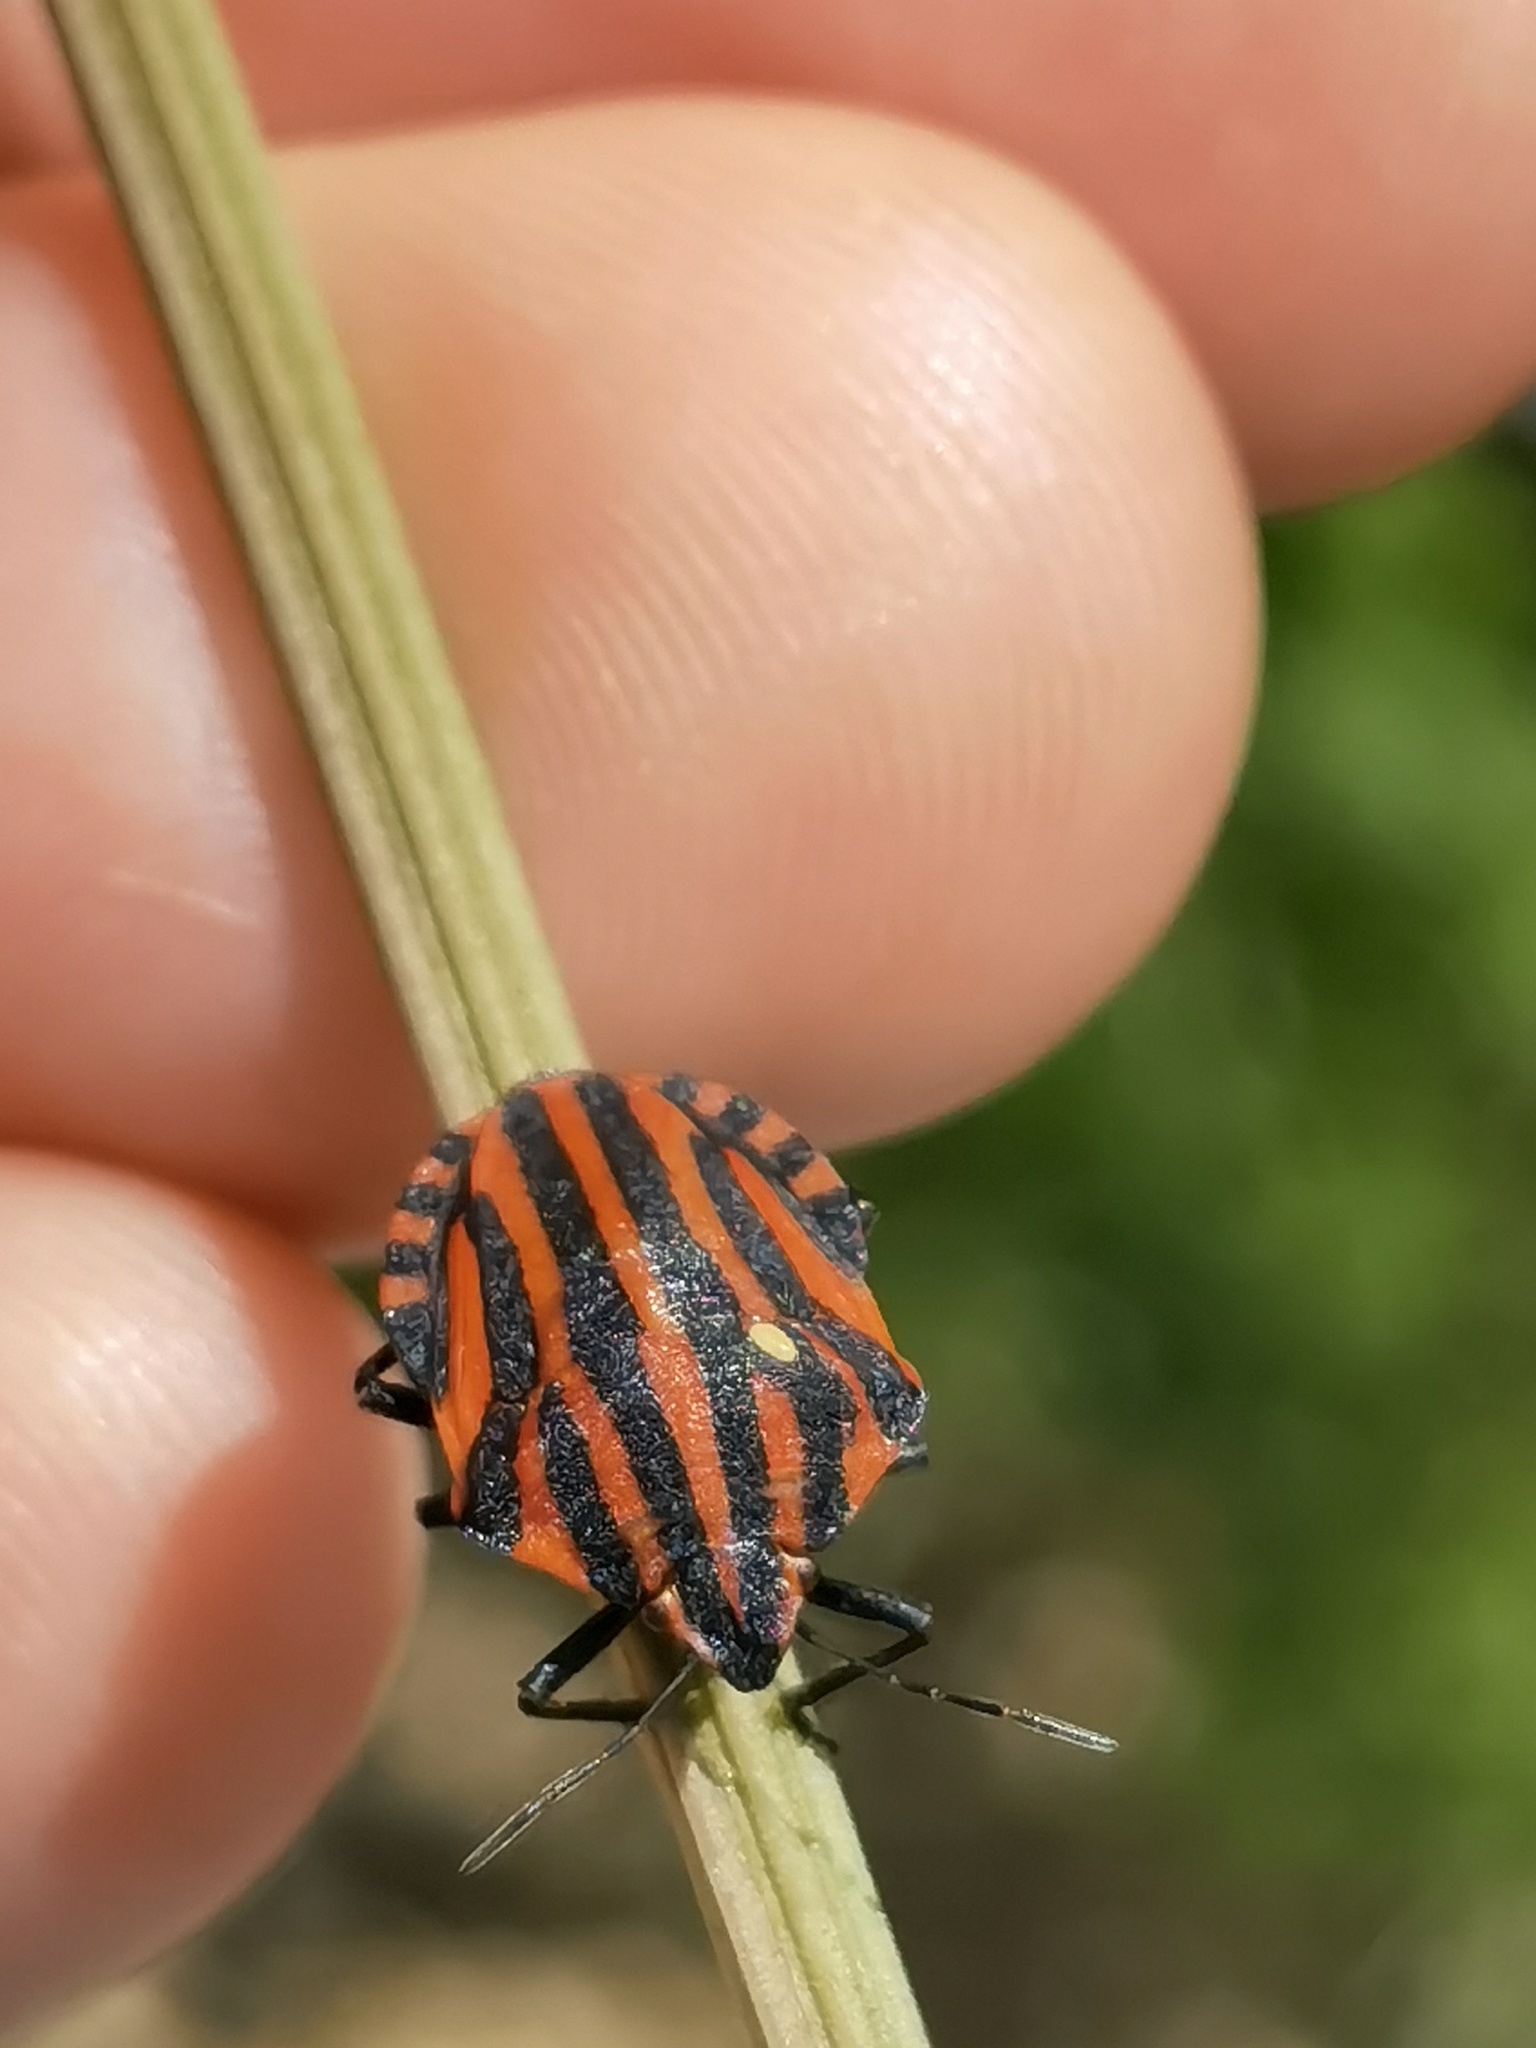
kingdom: Animalia
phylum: Arthropoda
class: Insecta
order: Hemiptera
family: Pentatomidae
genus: Graphosoma
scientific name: Graphosoma italicum
